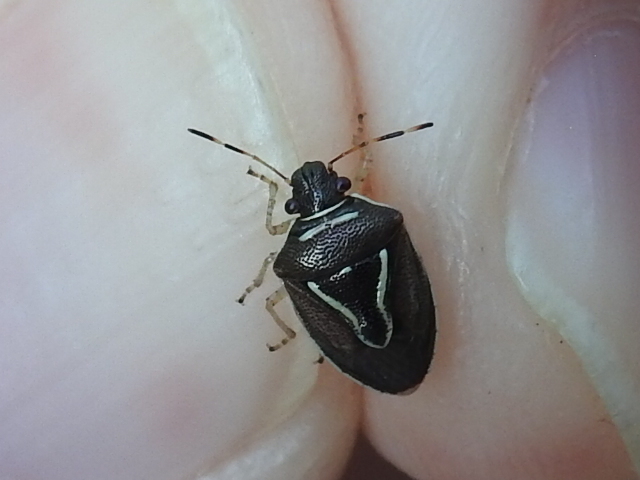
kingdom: Animalia
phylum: Arthropoda
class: Insecta
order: Hemiptera
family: Pentatomidae
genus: Mormidea
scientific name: Mormidea lugens
